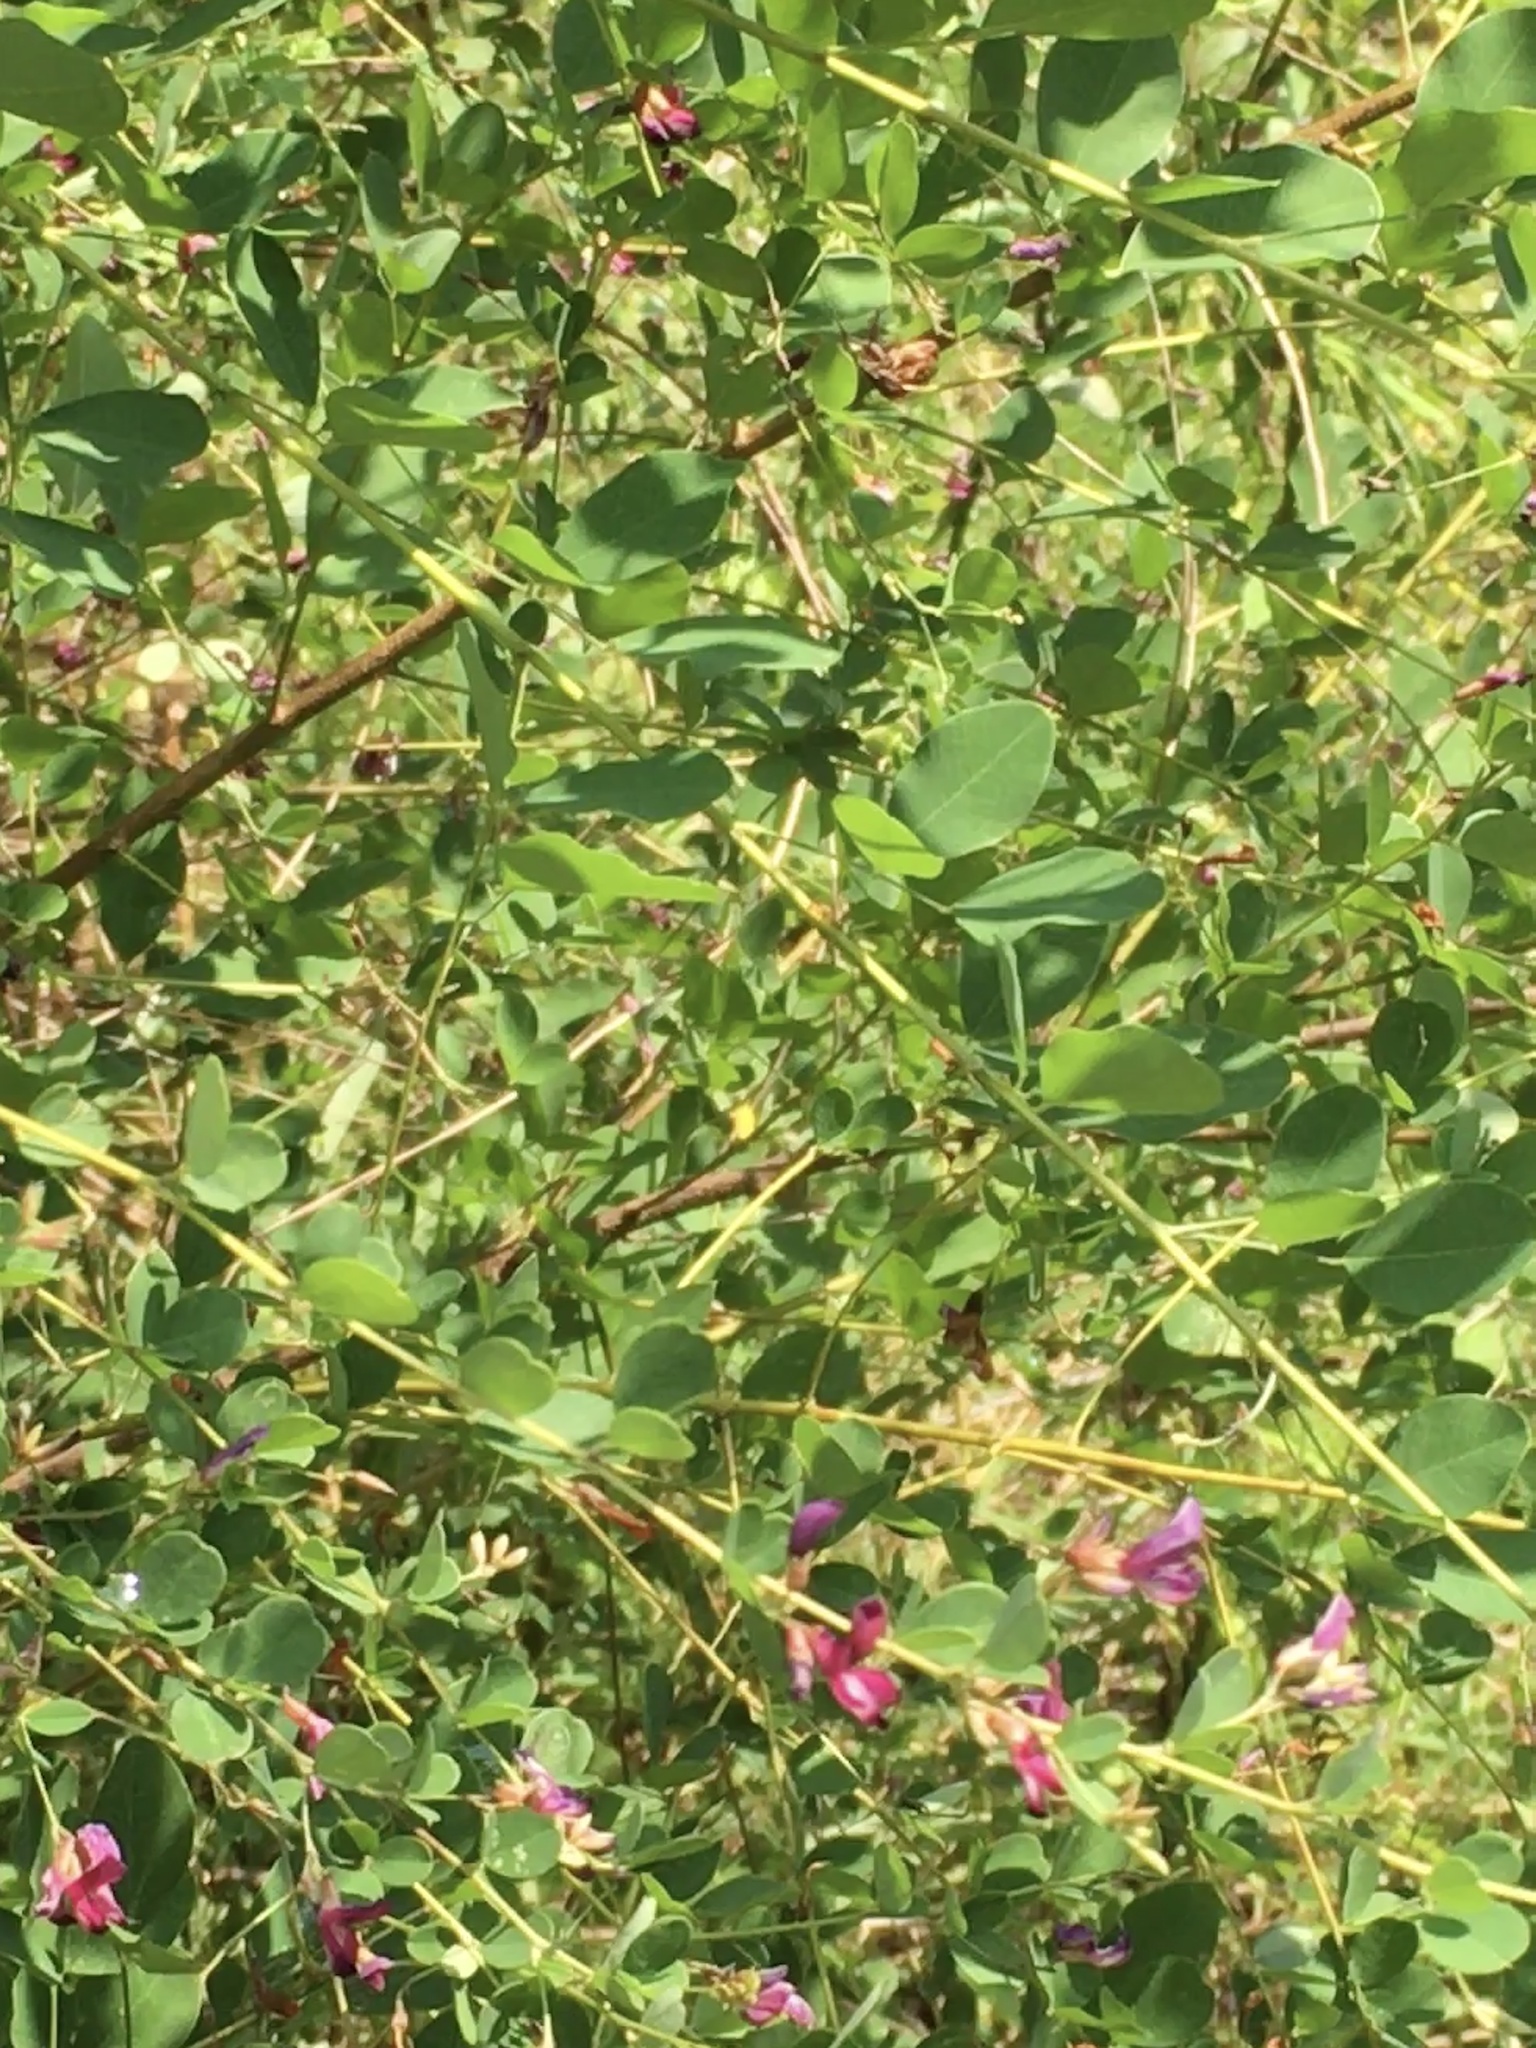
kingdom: Plantae
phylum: Tracheophyta
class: Magnoliopsida
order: Fabales
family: Fabaceae
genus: Lespedeza
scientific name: Lespedeza bicolor
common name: Shrub lespedeza
